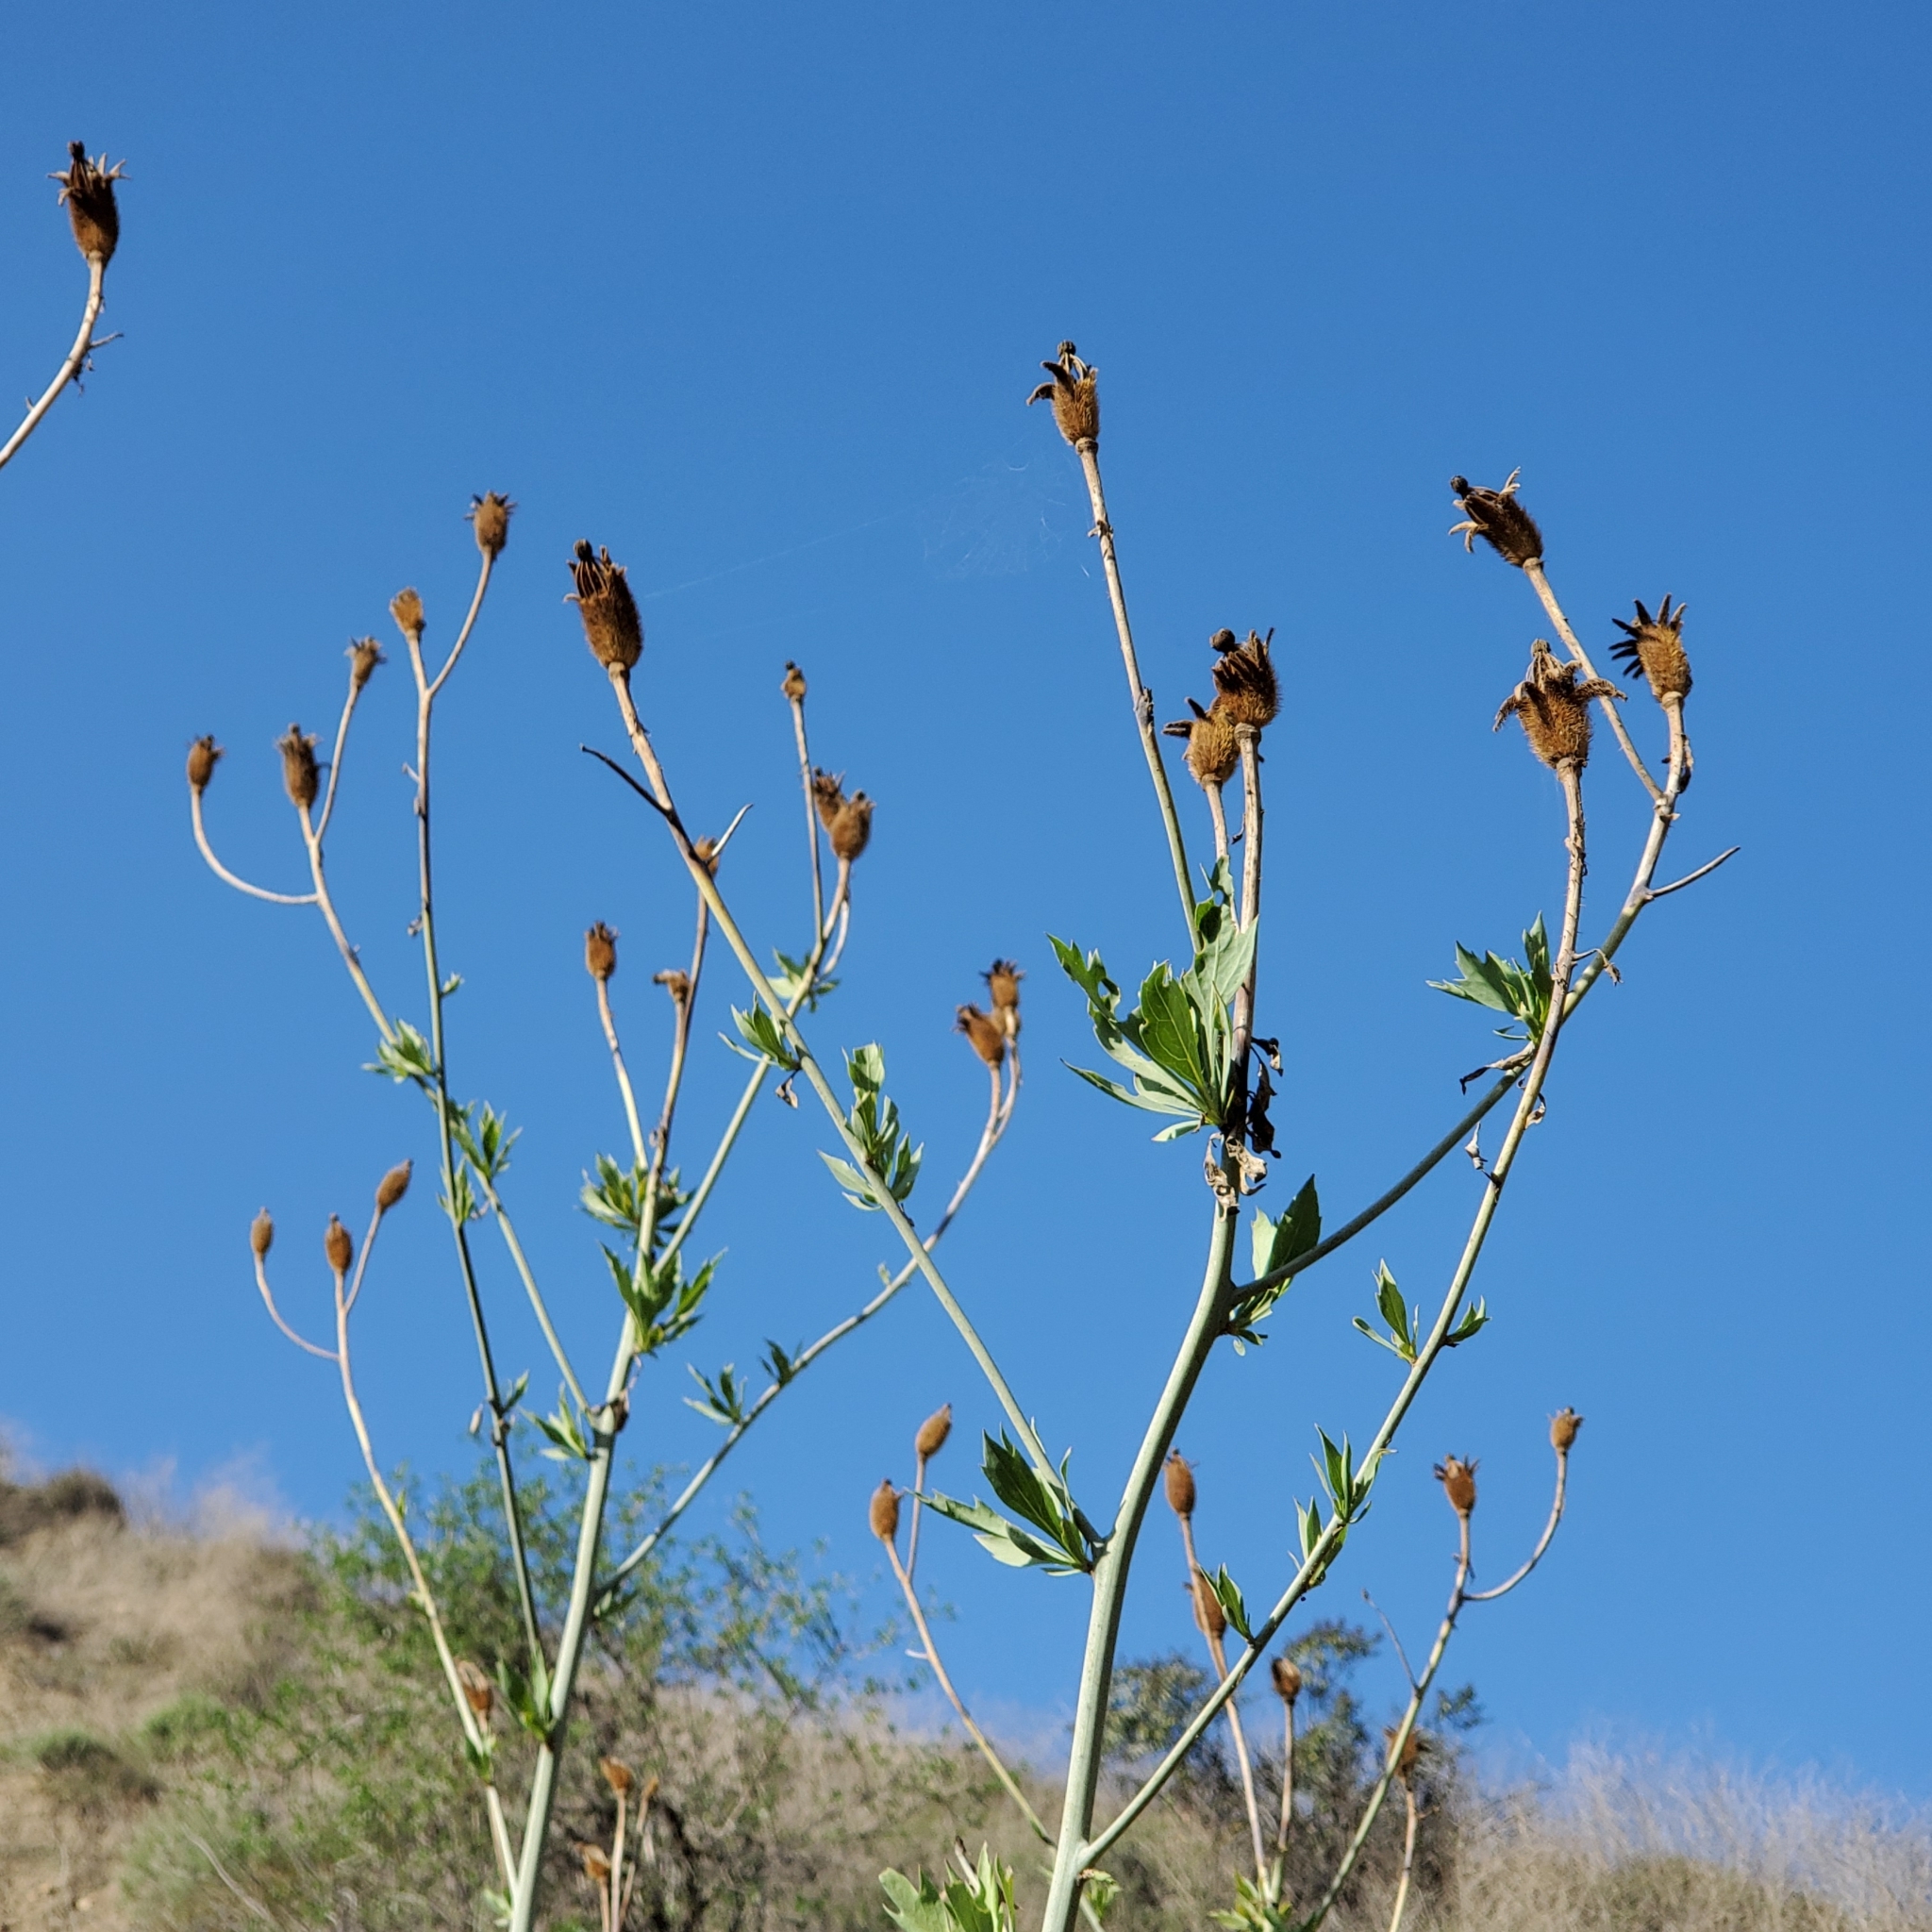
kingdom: Plantae
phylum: Tracheophyta
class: Magnoliopsida
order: Ranunculales
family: Papaveraceae
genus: Romneya
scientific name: Romneya coulteri
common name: California tree-poppy
